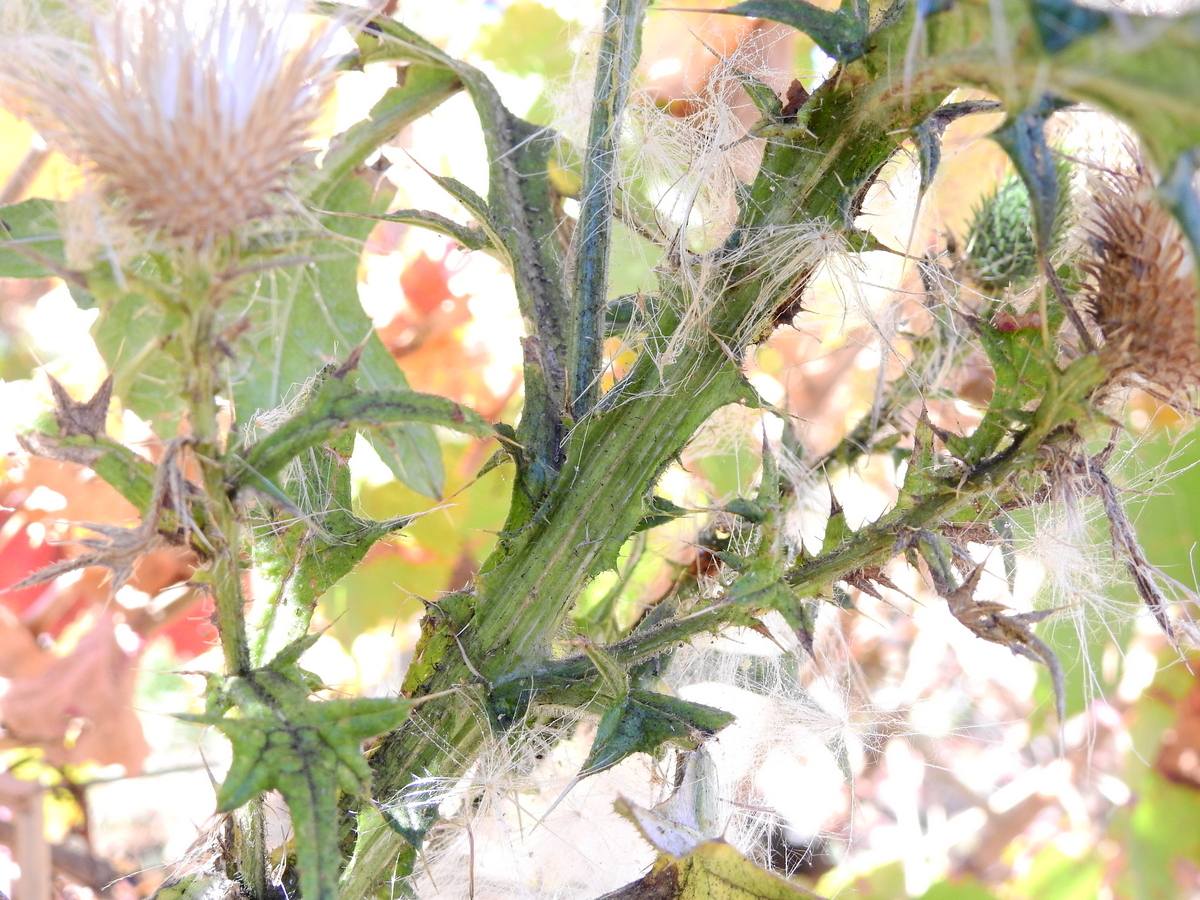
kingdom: Plantae
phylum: Tracheophyta
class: Magnoliopsida
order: Asterales
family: Asteraceae
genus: Cirsium
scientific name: Cirsium vulgare
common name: Bull thistle
